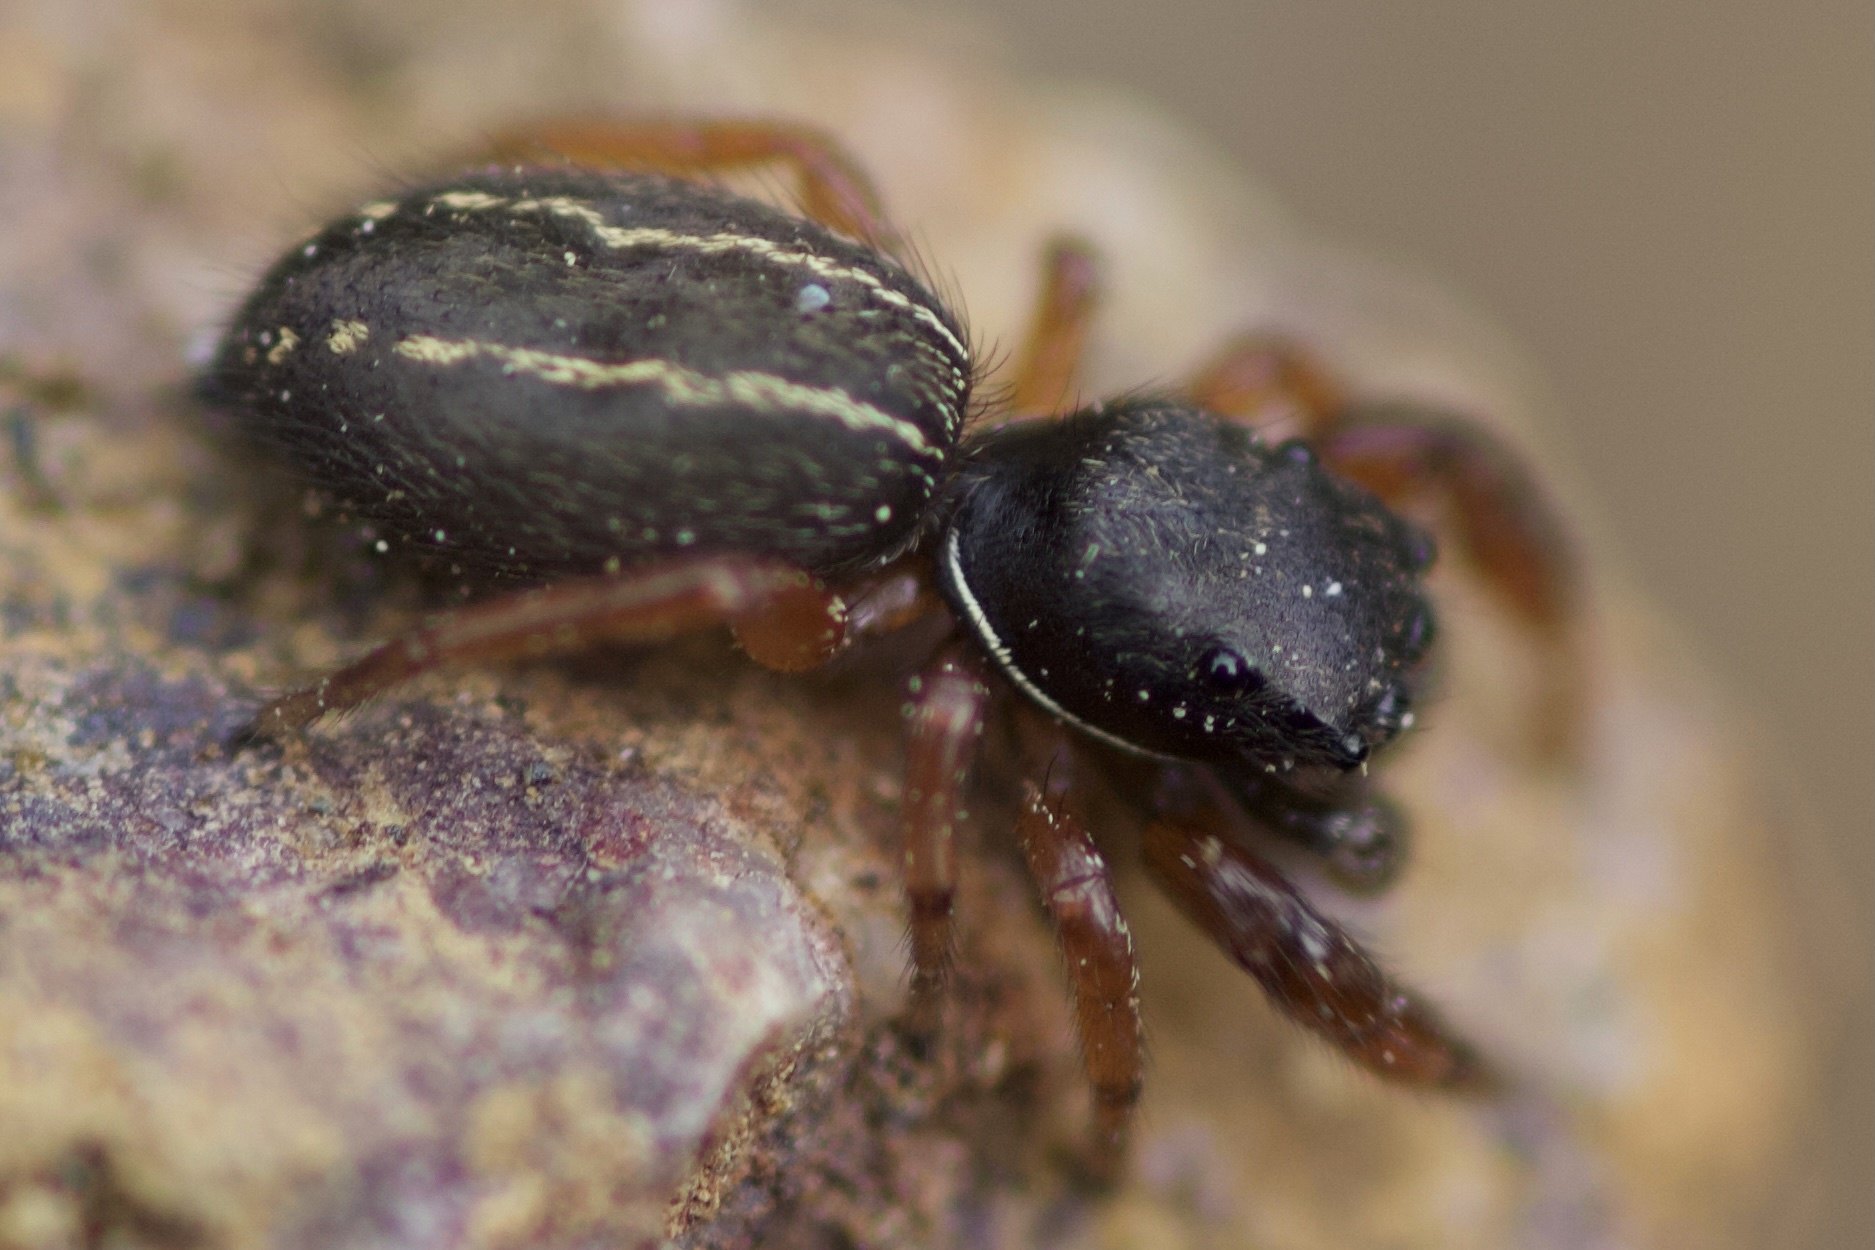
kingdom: Animalia
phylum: Arthropoda
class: Arachnida
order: Araneae
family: Salticidae
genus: Metacyrba
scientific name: Metacyrba taeniola
